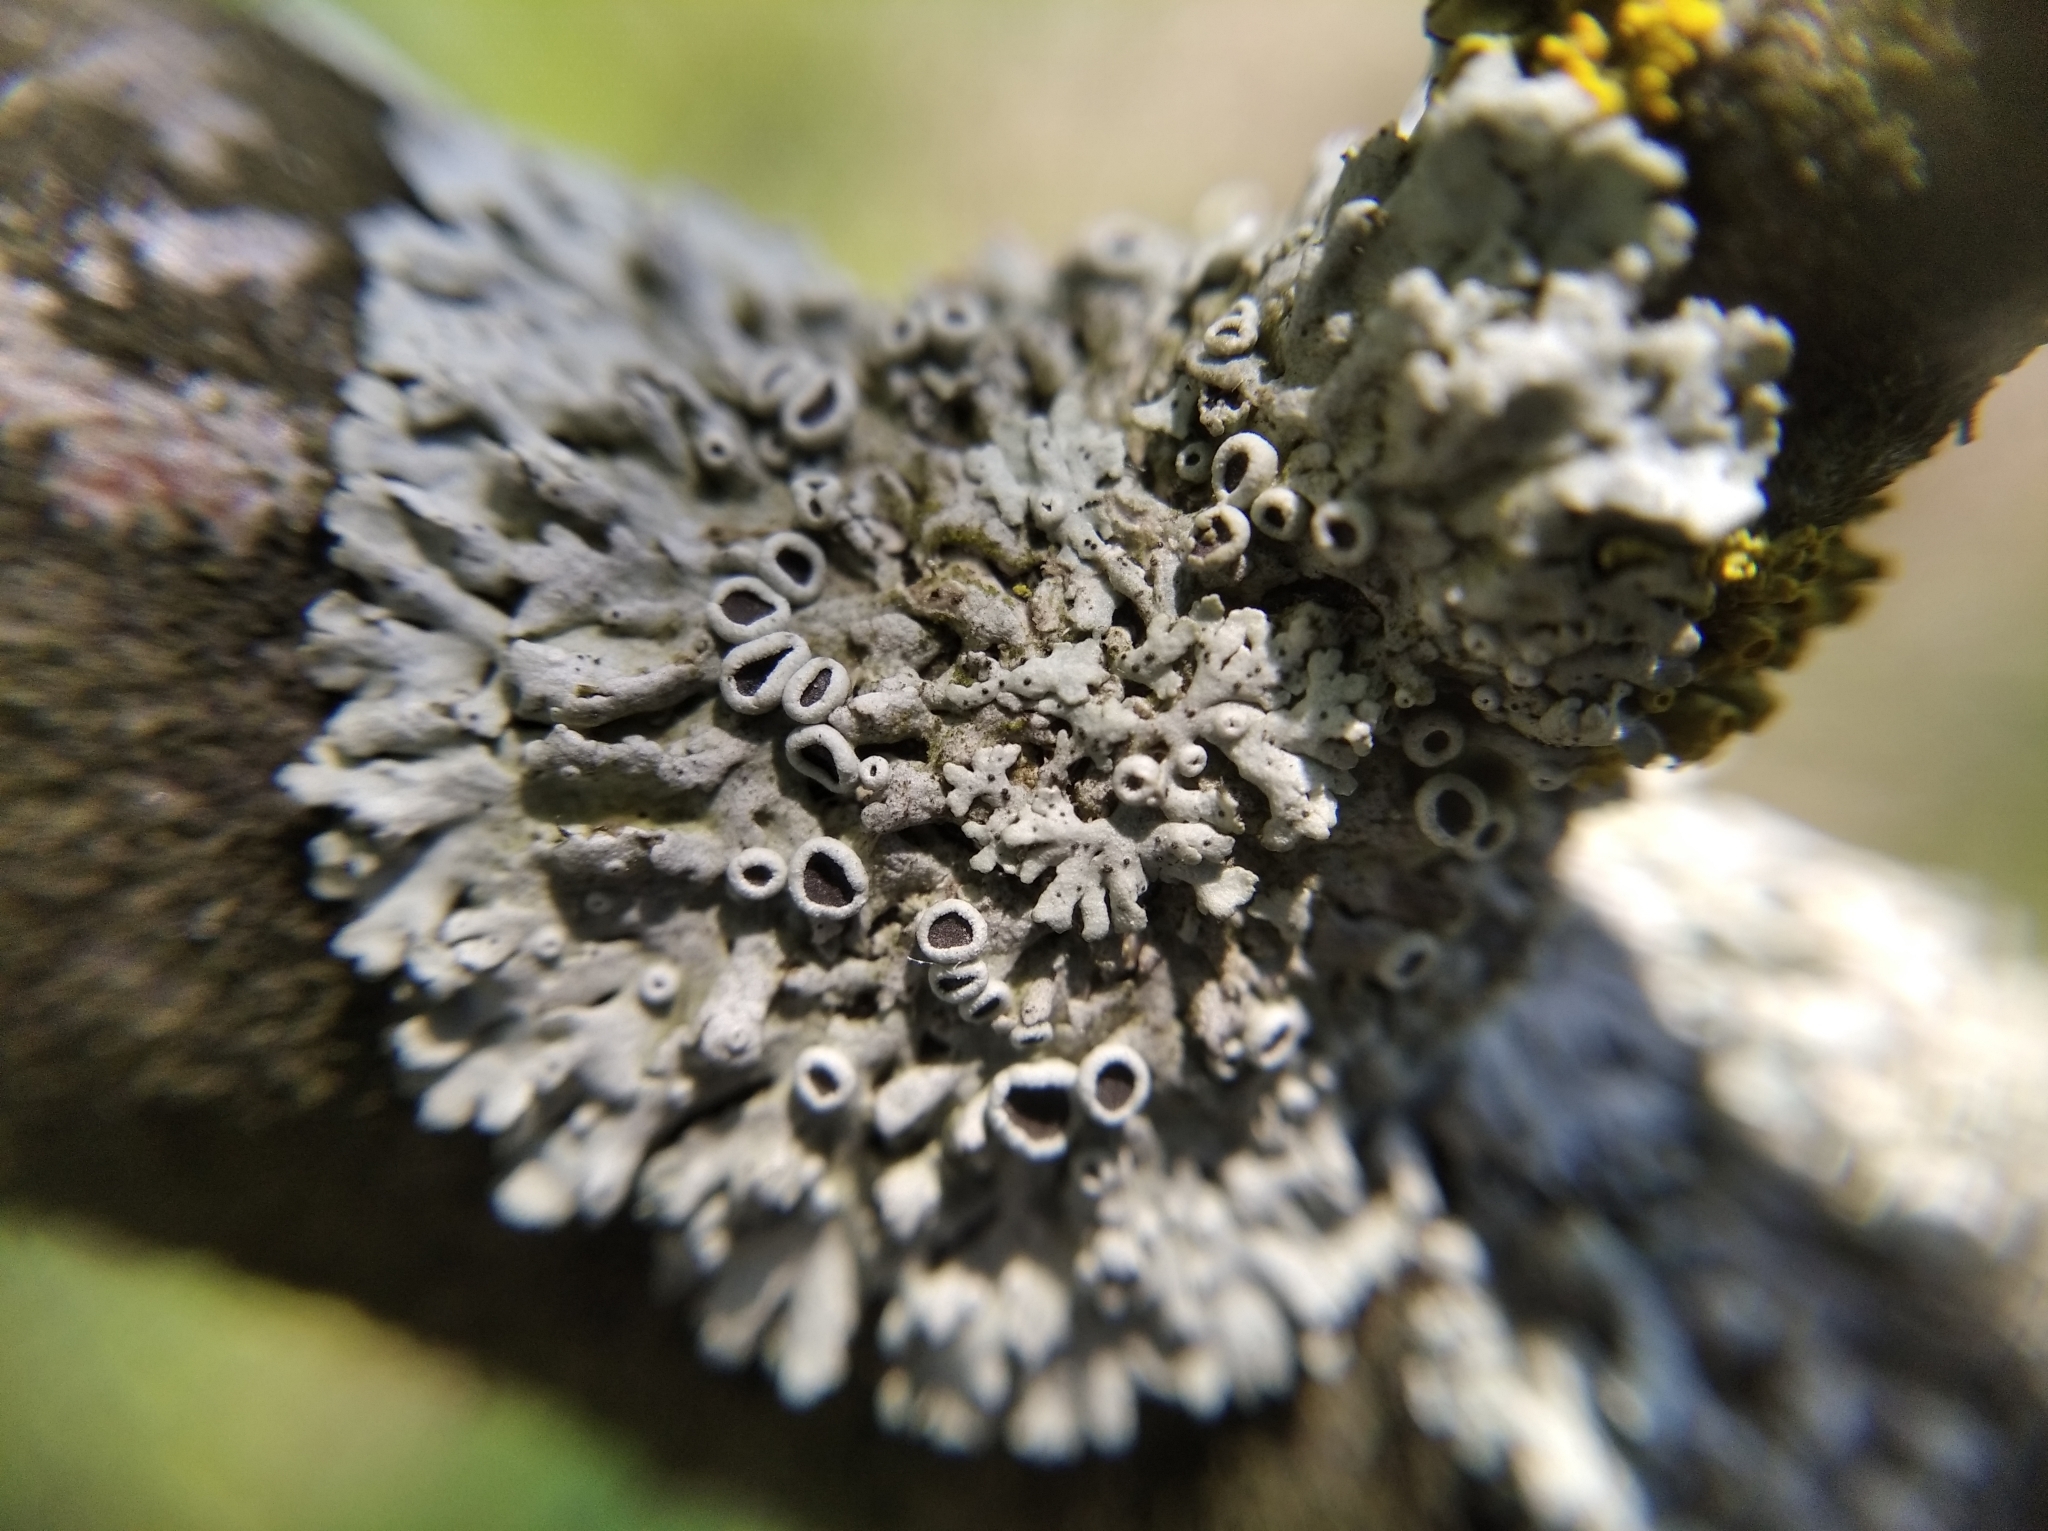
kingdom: Fungi
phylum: Ascomycota
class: Lecanoromycetes
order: Caliciales
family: Physciaceae
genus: Physcia
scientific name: Physcia stellaris
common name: Star rosette lichen
